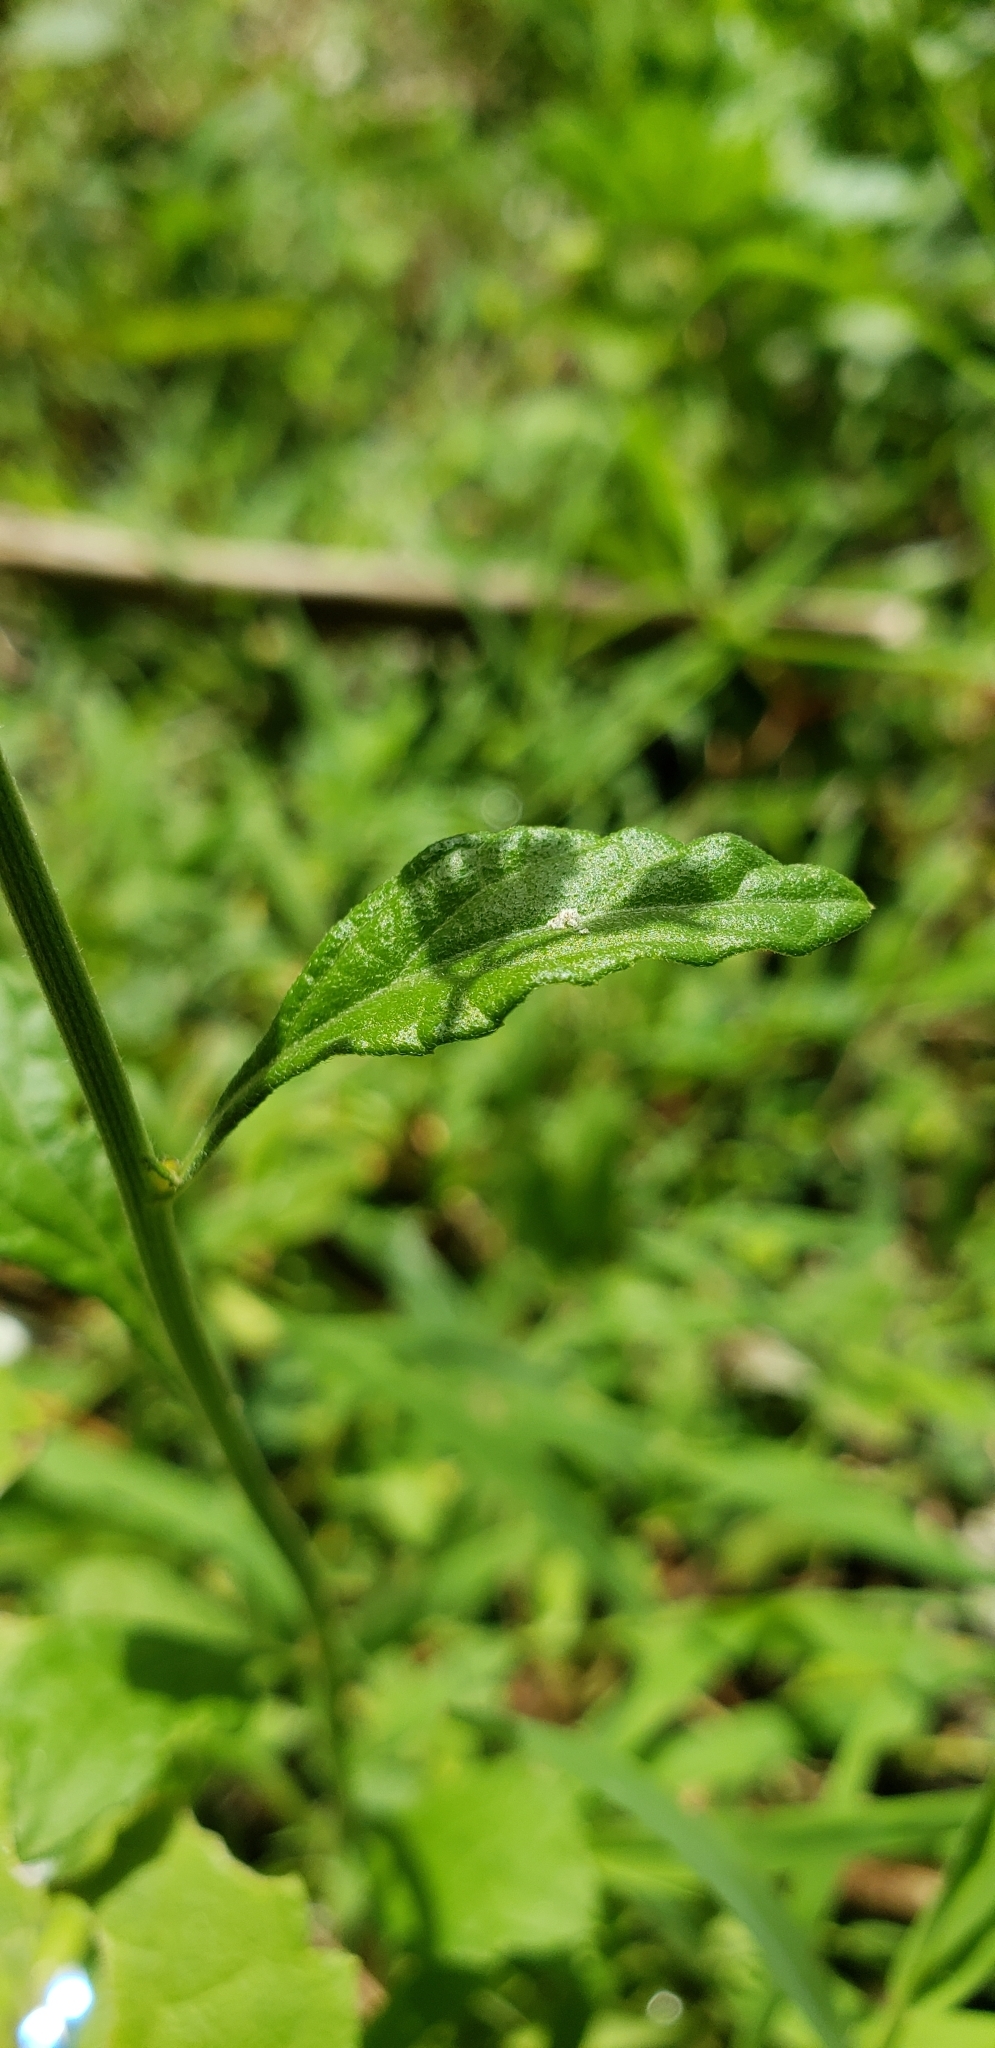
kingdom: Plantae
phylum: Tracheophyta
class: Magnoliopsida
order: Asterales
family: Asteraceae
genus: Cyanthillium
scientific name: Cyanthillium cinereum
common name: Little ironweed
